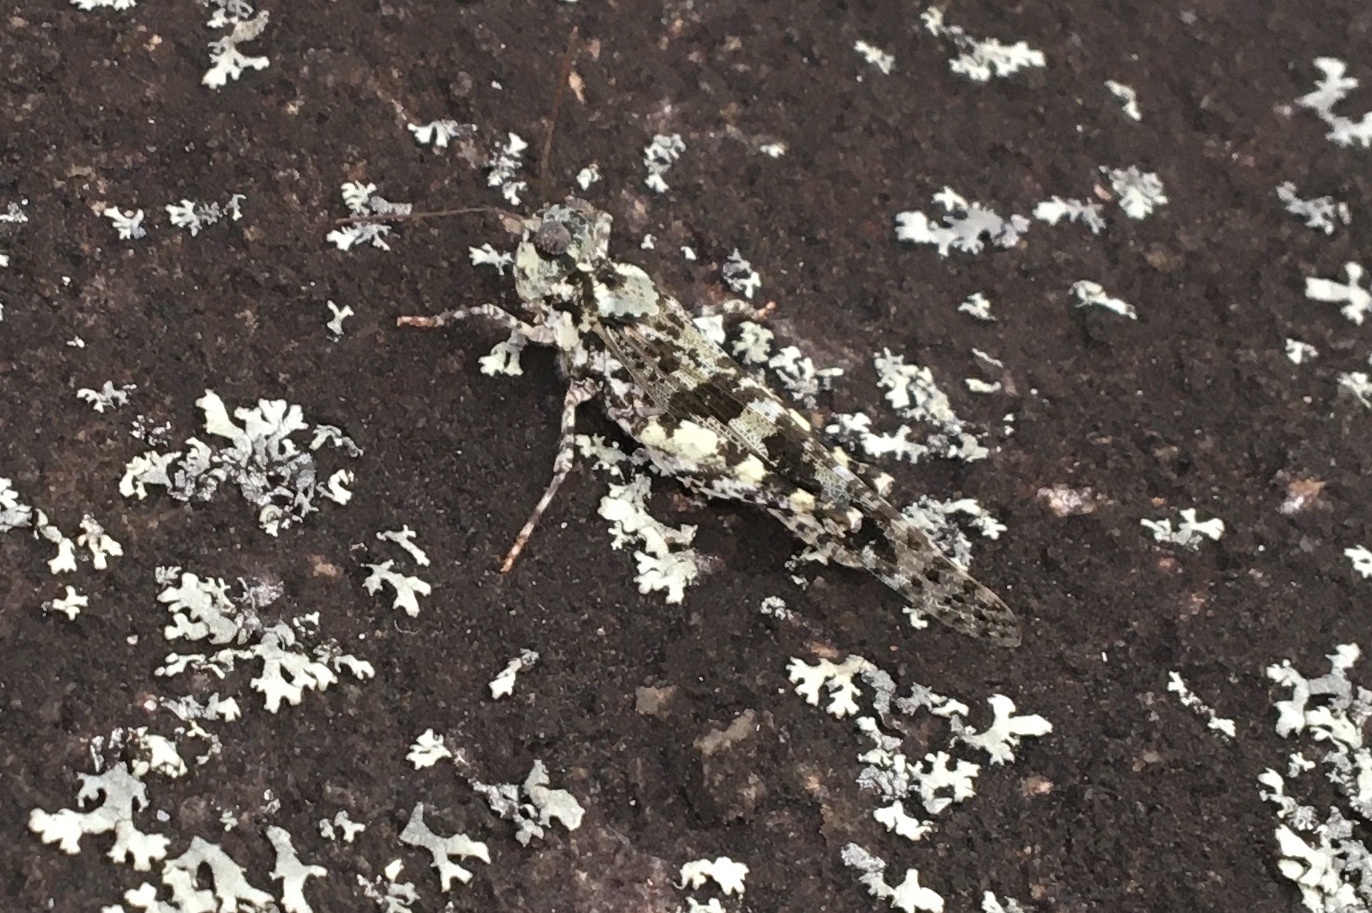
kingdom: Animalia
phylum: Arthropoda
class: Insecta
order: Orthoptera
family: Acrididae
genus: Trimerotropis
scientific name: Trimerotropis saxatilis
